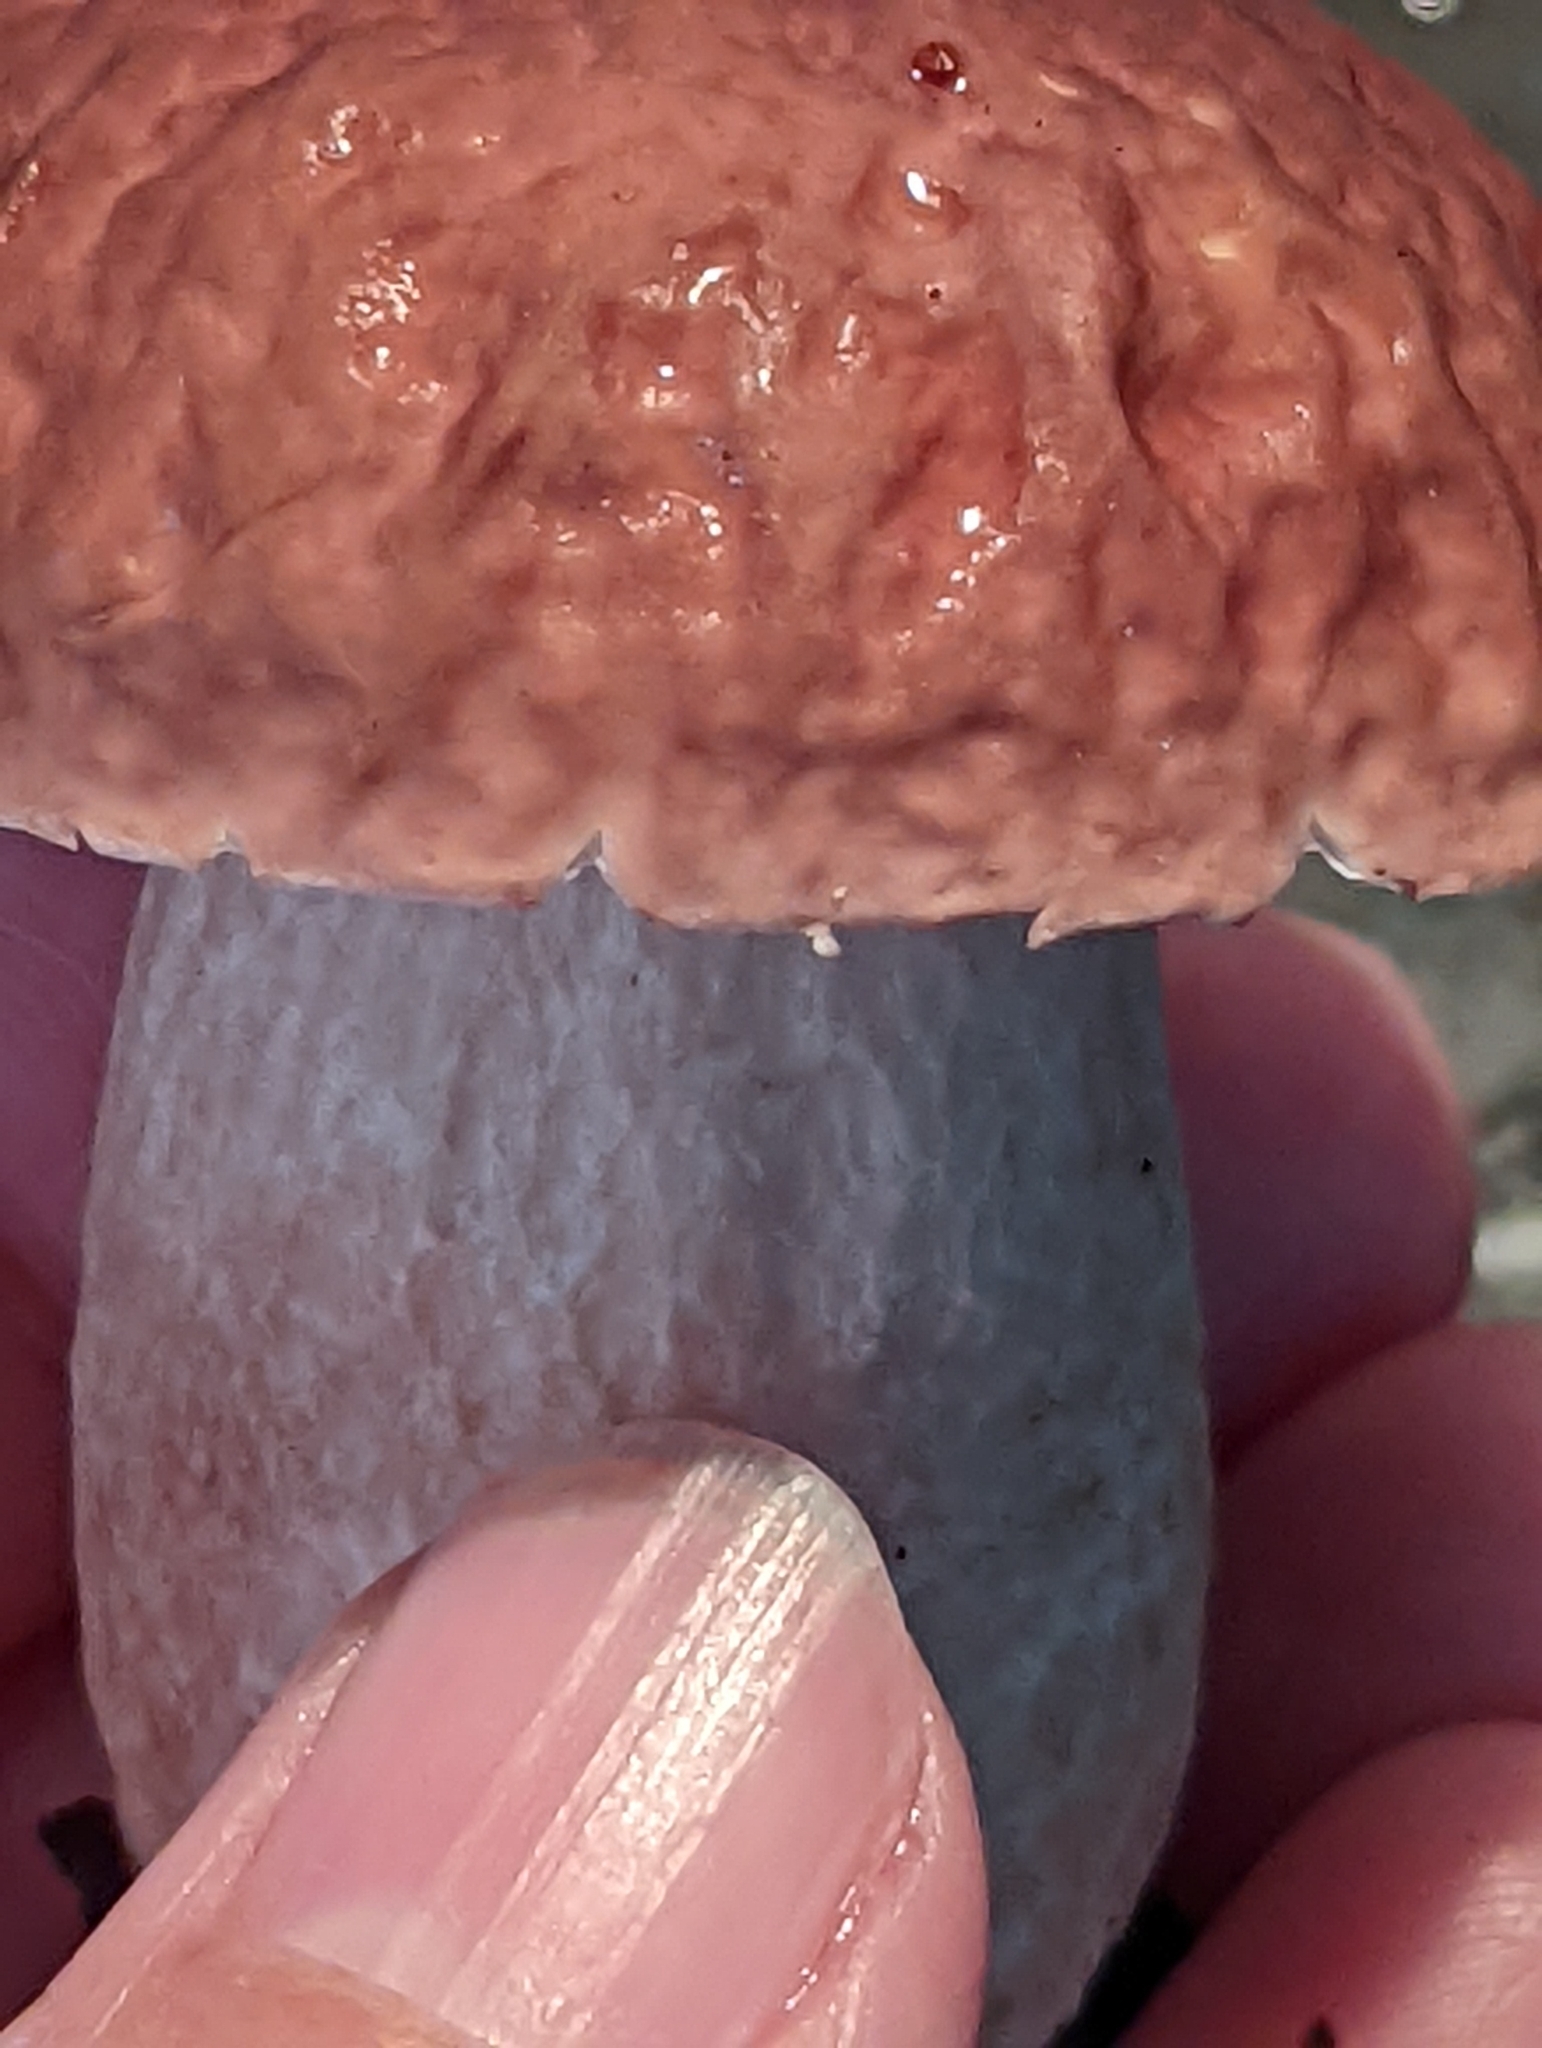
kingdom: Fungi
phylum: Basidiomycota
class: Agaricomycetes
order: Boletales
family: Boletaceae
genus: Xanthoconium
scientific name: Xanthoconium separans
